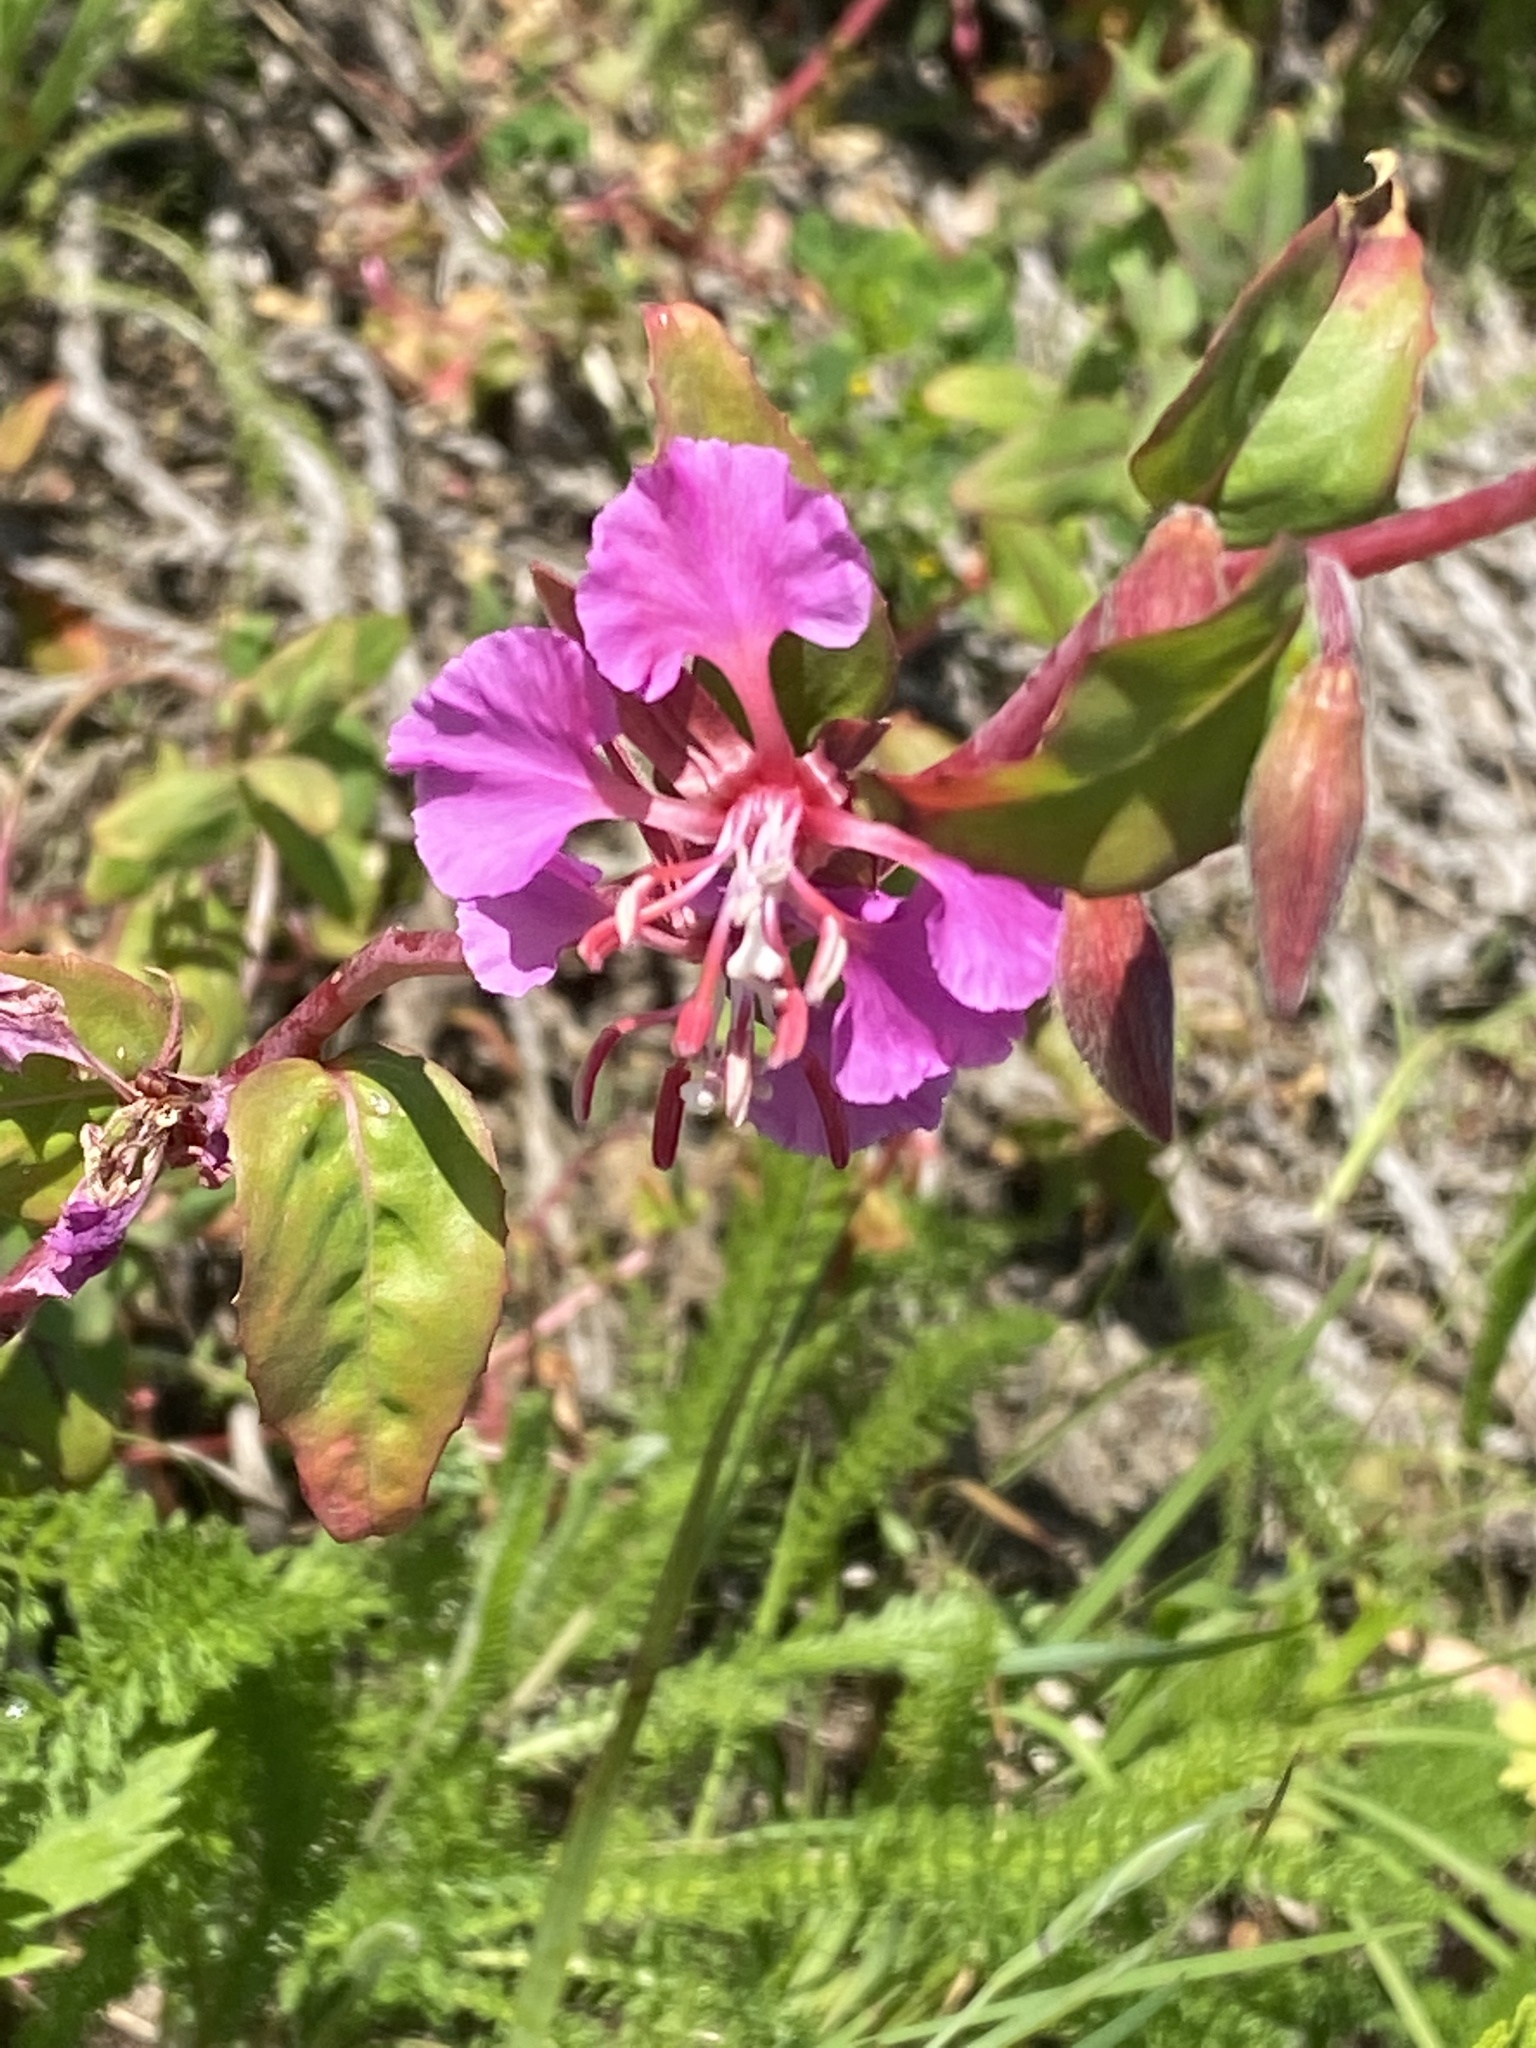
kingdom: Plantae
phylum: Tracheophyta
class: Magnoliopsida
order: Myrtales
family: Onagraceae
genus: Clarkia
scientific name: Clarkia unguiculata
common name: Clarkia
